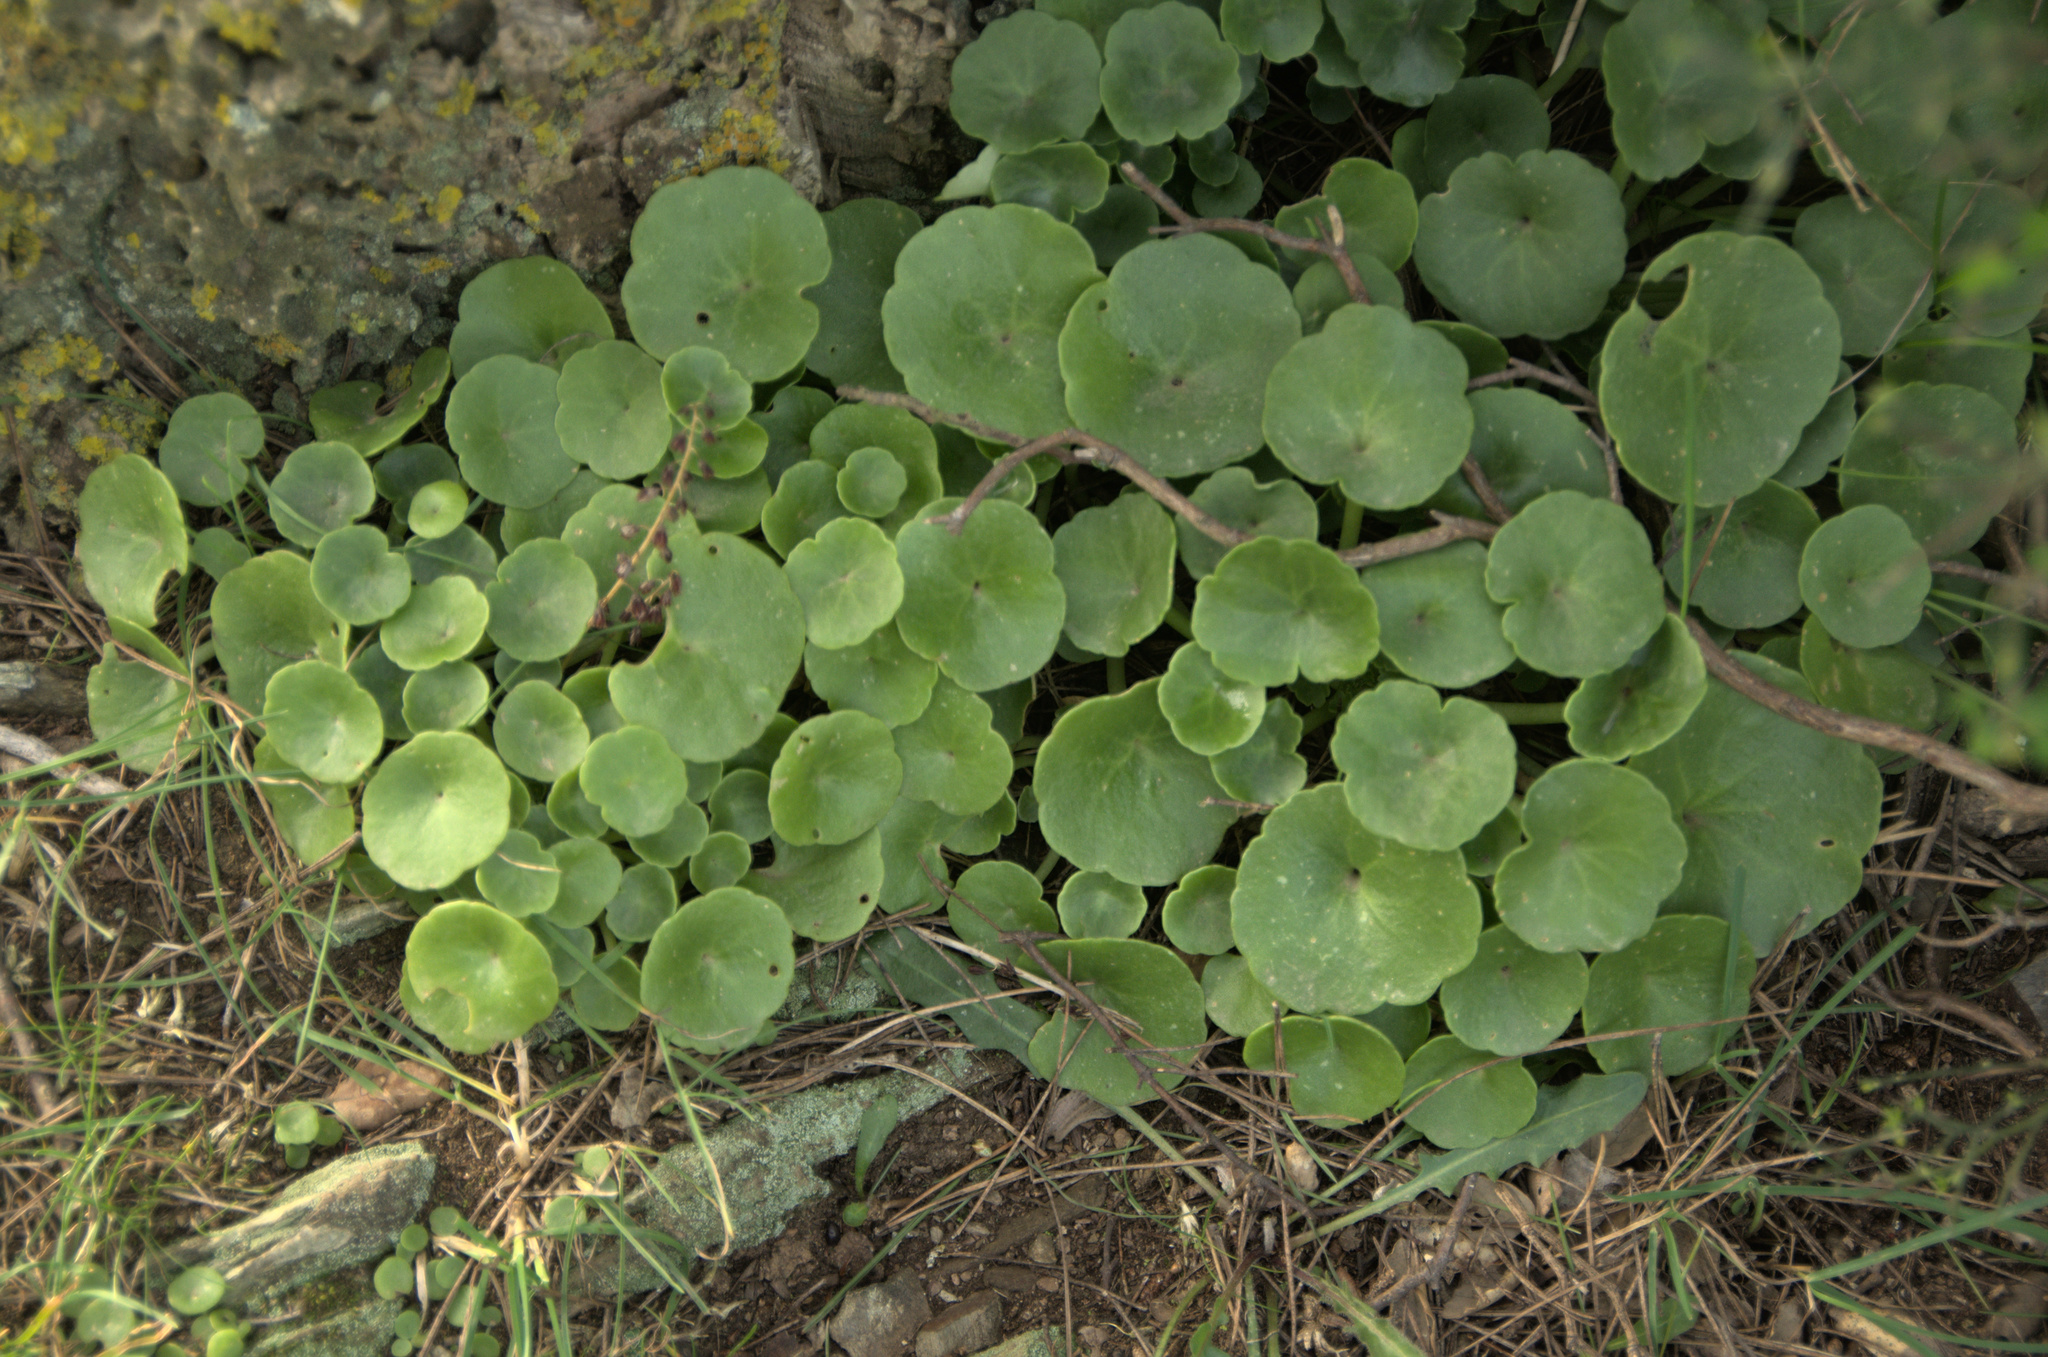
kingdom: Plantae
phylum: Tracheophyta
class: Magnoliopsida
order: Saxifragales
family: Crassulaceae
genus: Umbilicus
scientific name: Umbilicus rupestris
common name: Navelwort
